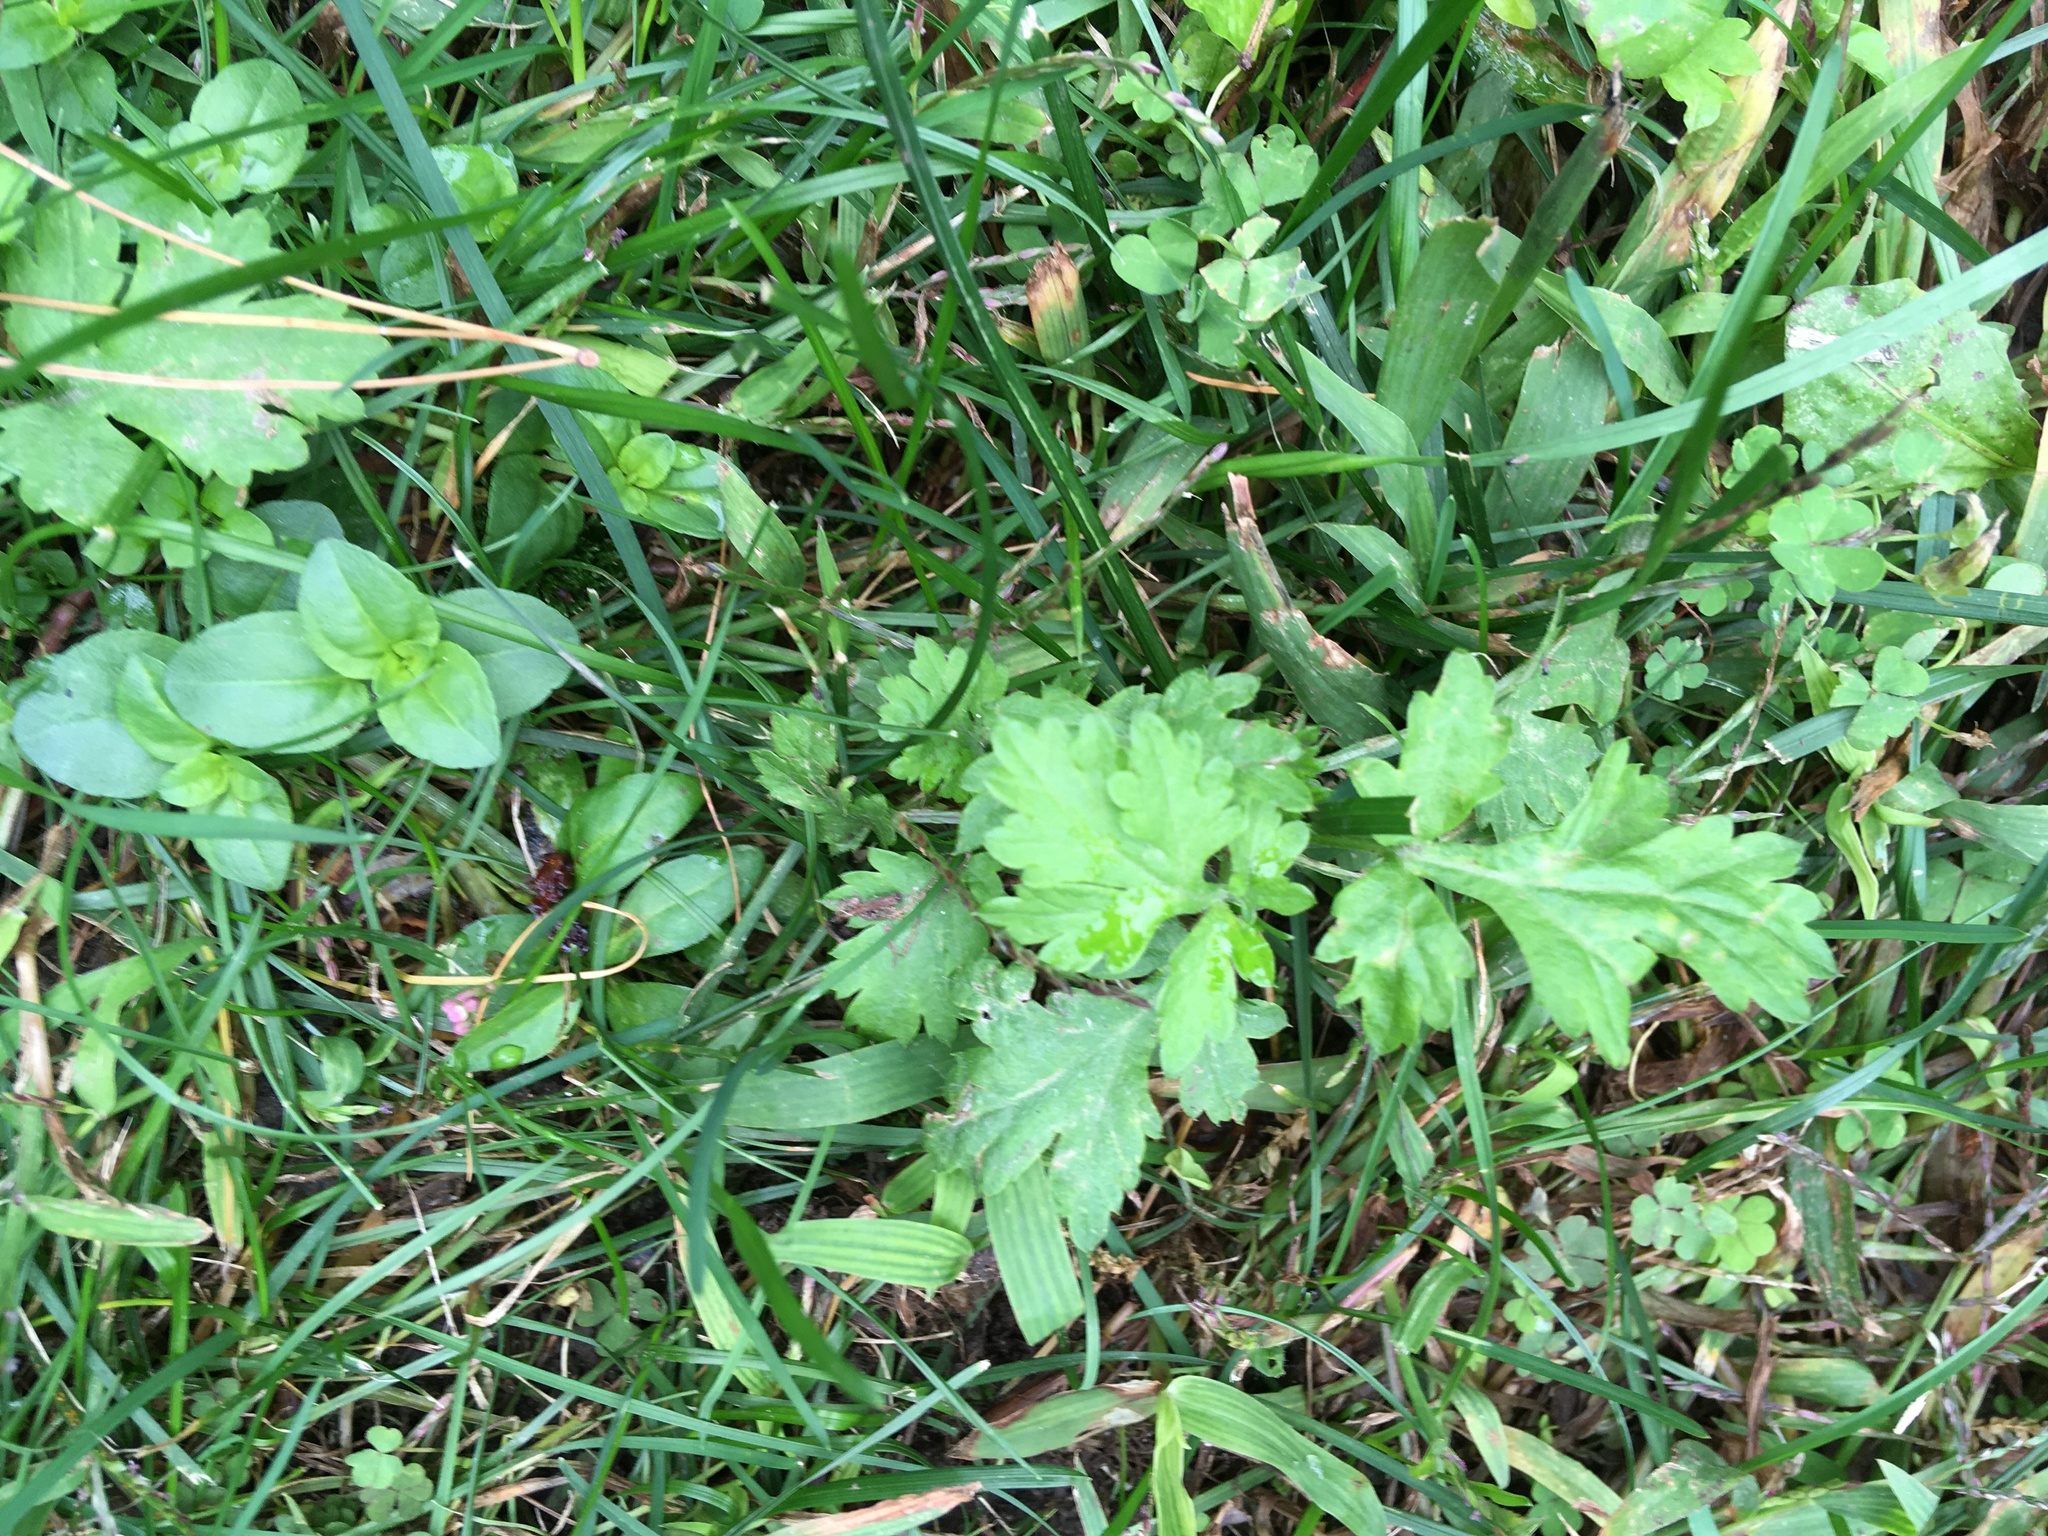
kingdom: Plantae
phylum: Tracheophyta
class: Magnoliopsida
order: Asterales
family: Asteraceae
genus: Artemisia
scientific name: Artemisia vulgaris
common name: Mugwort
